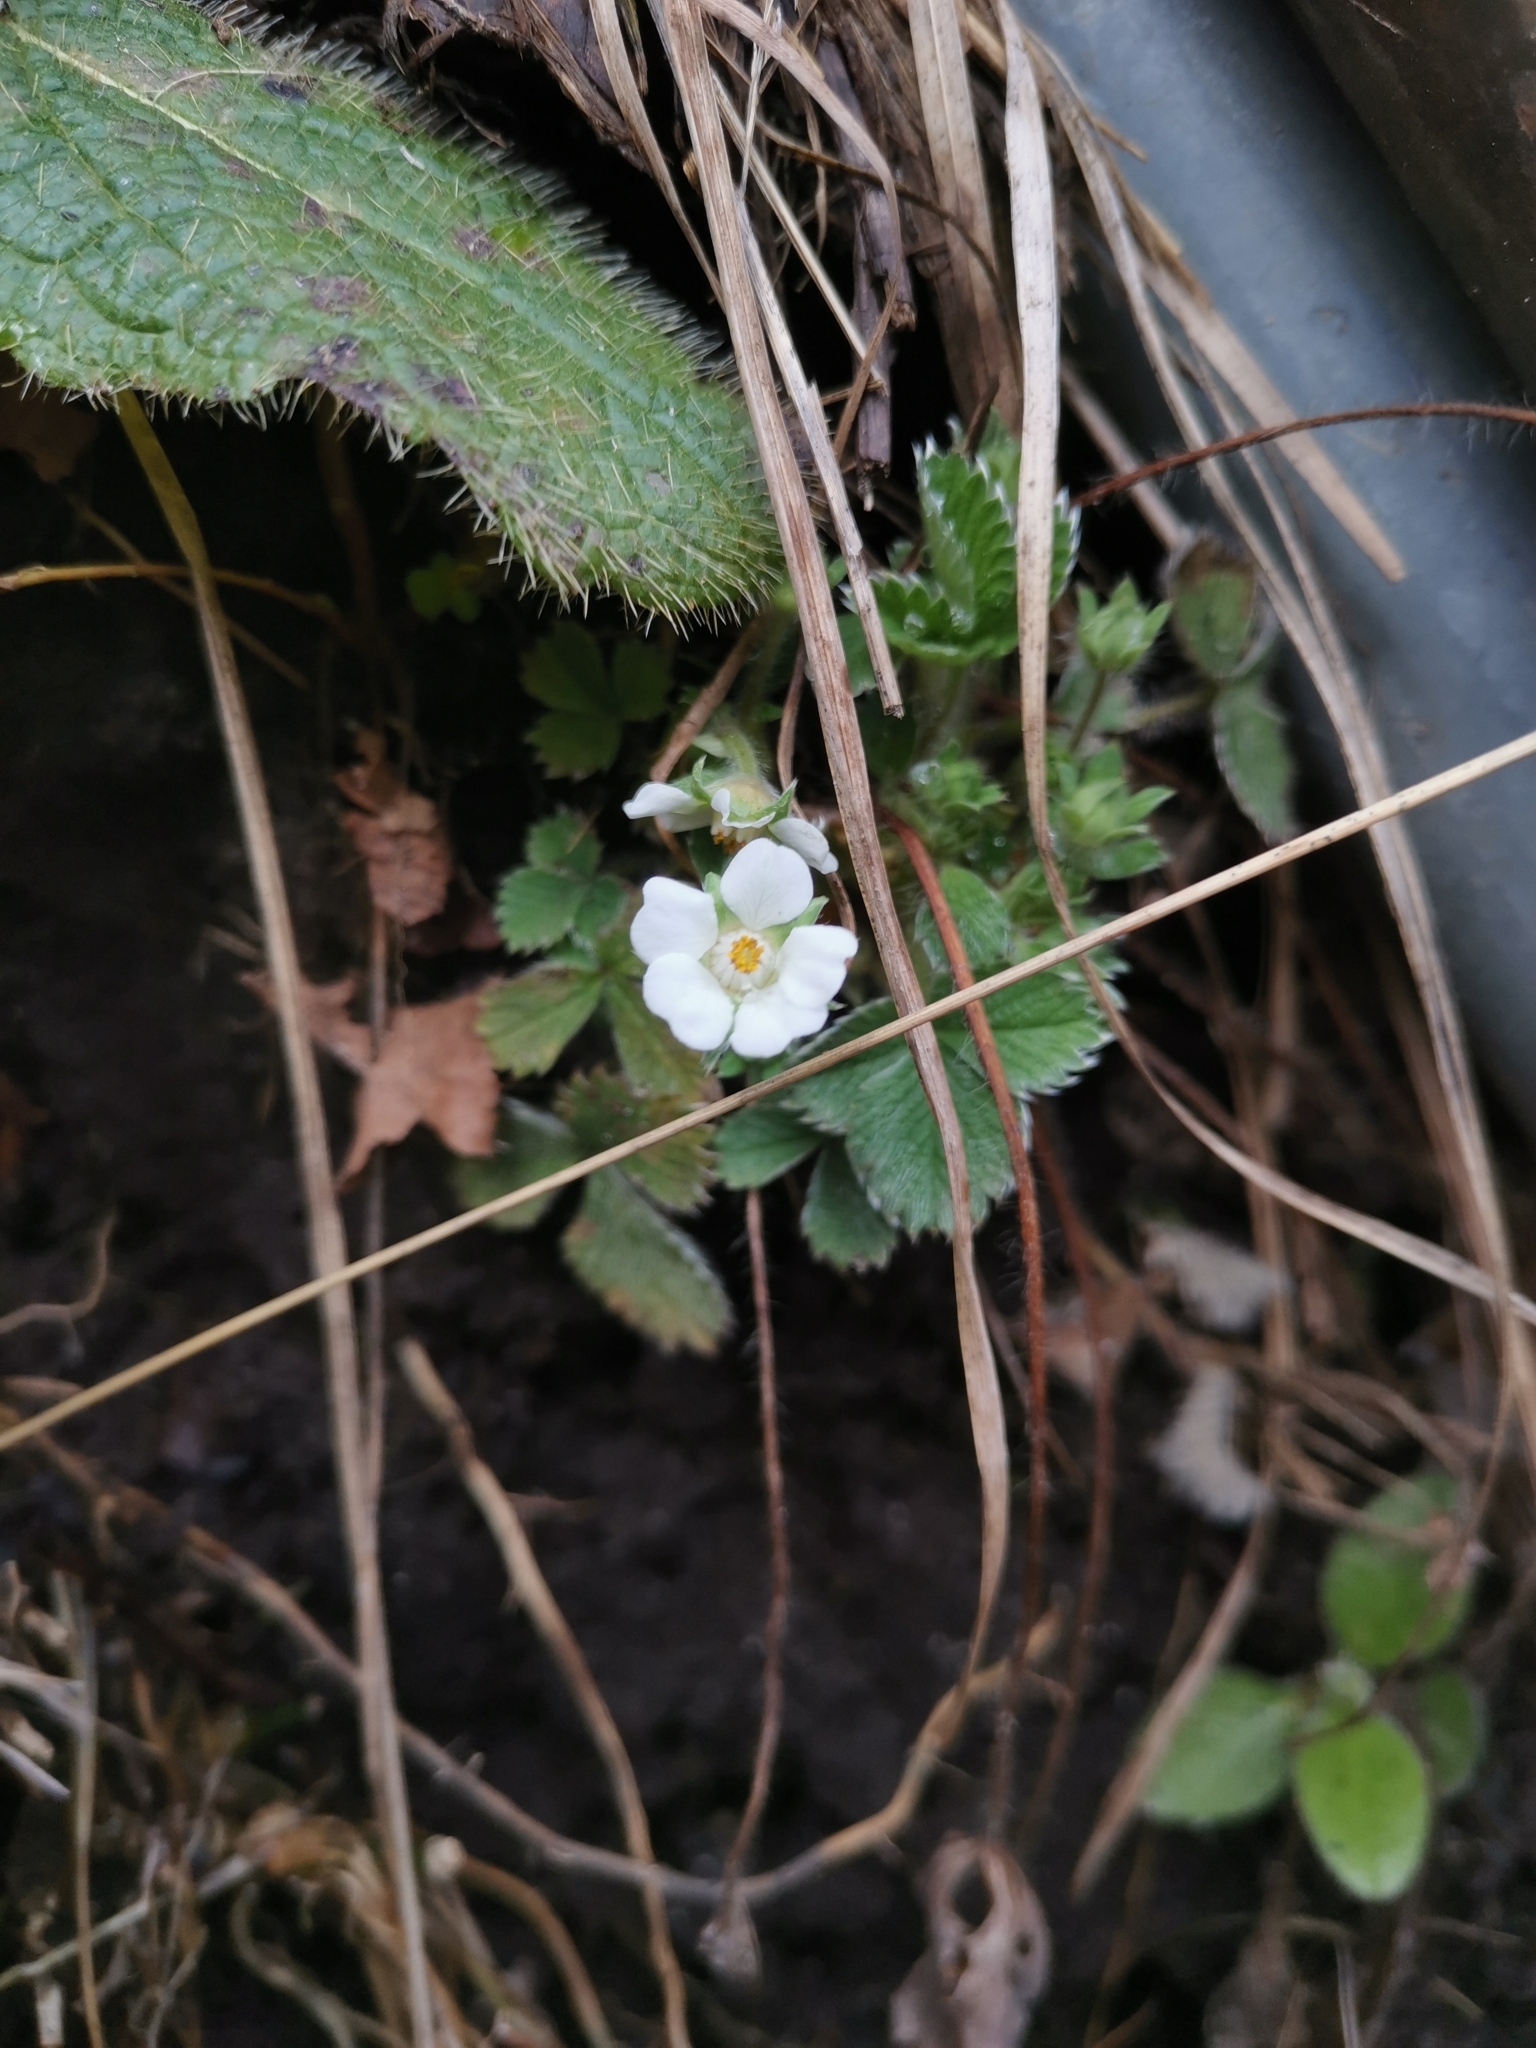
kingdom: Plantae
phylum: Tracheophyta
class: Magnoliopsida
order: Rosales
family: Rosaceae
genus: Potentilla
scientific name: Potentilla carniolica
